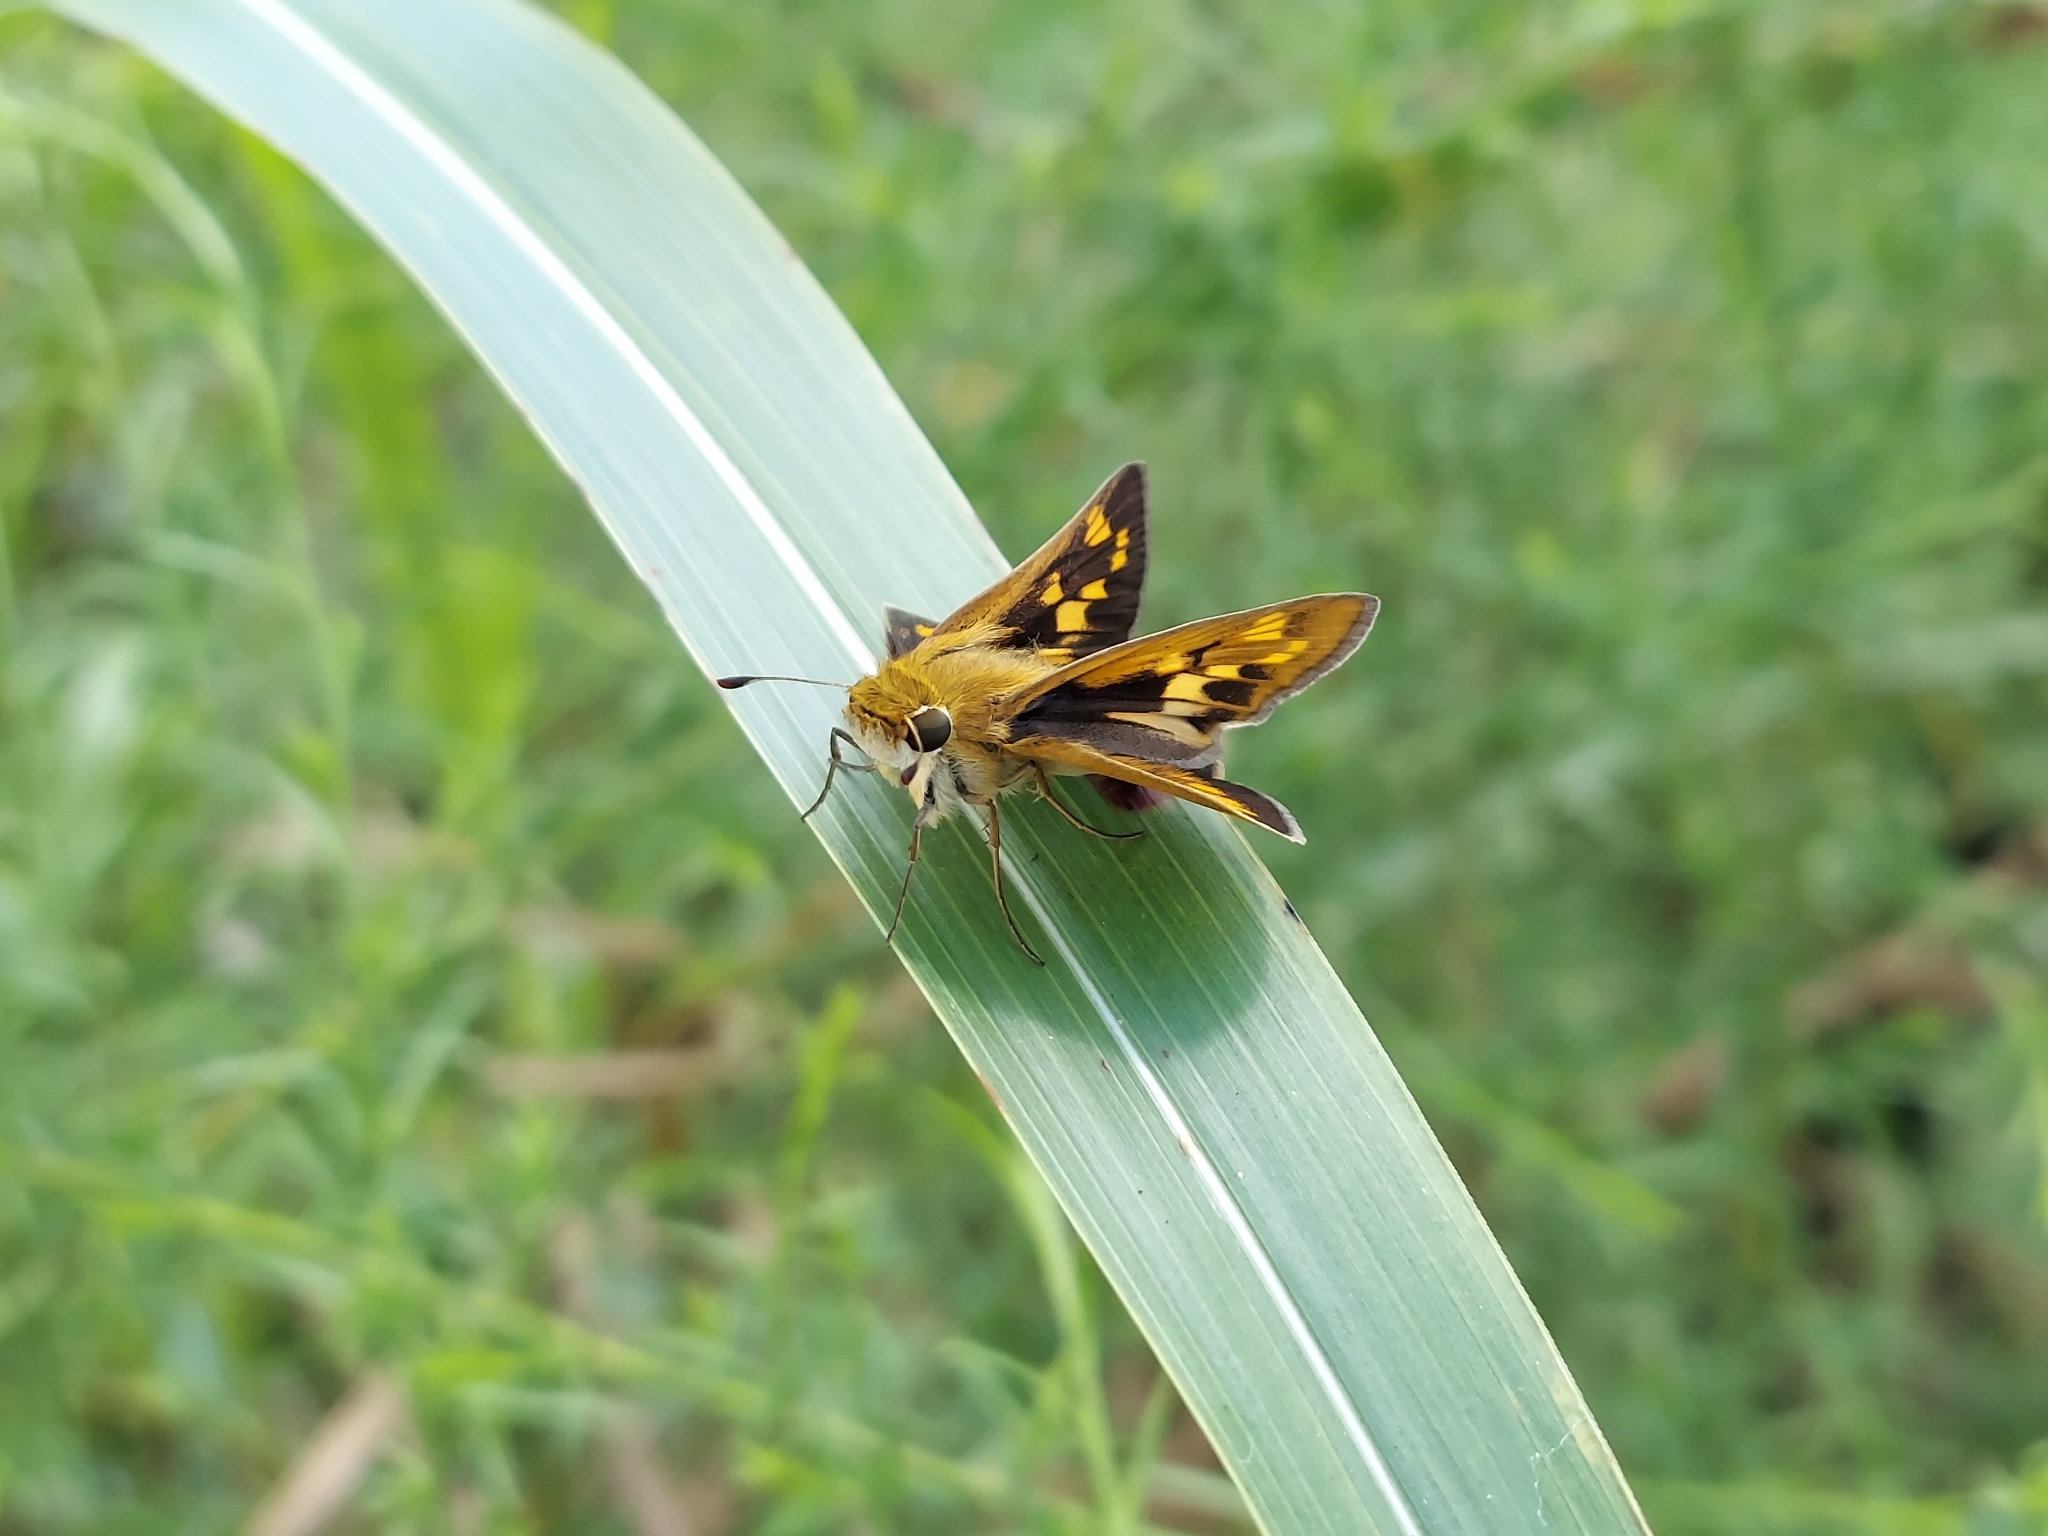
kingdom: Animalia
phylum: Arthropoda
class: Insecta
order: Lepidoptera
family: Hesperiidae
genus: Hylephila
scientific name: Hylephila phyleus
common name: Fiery skipper
